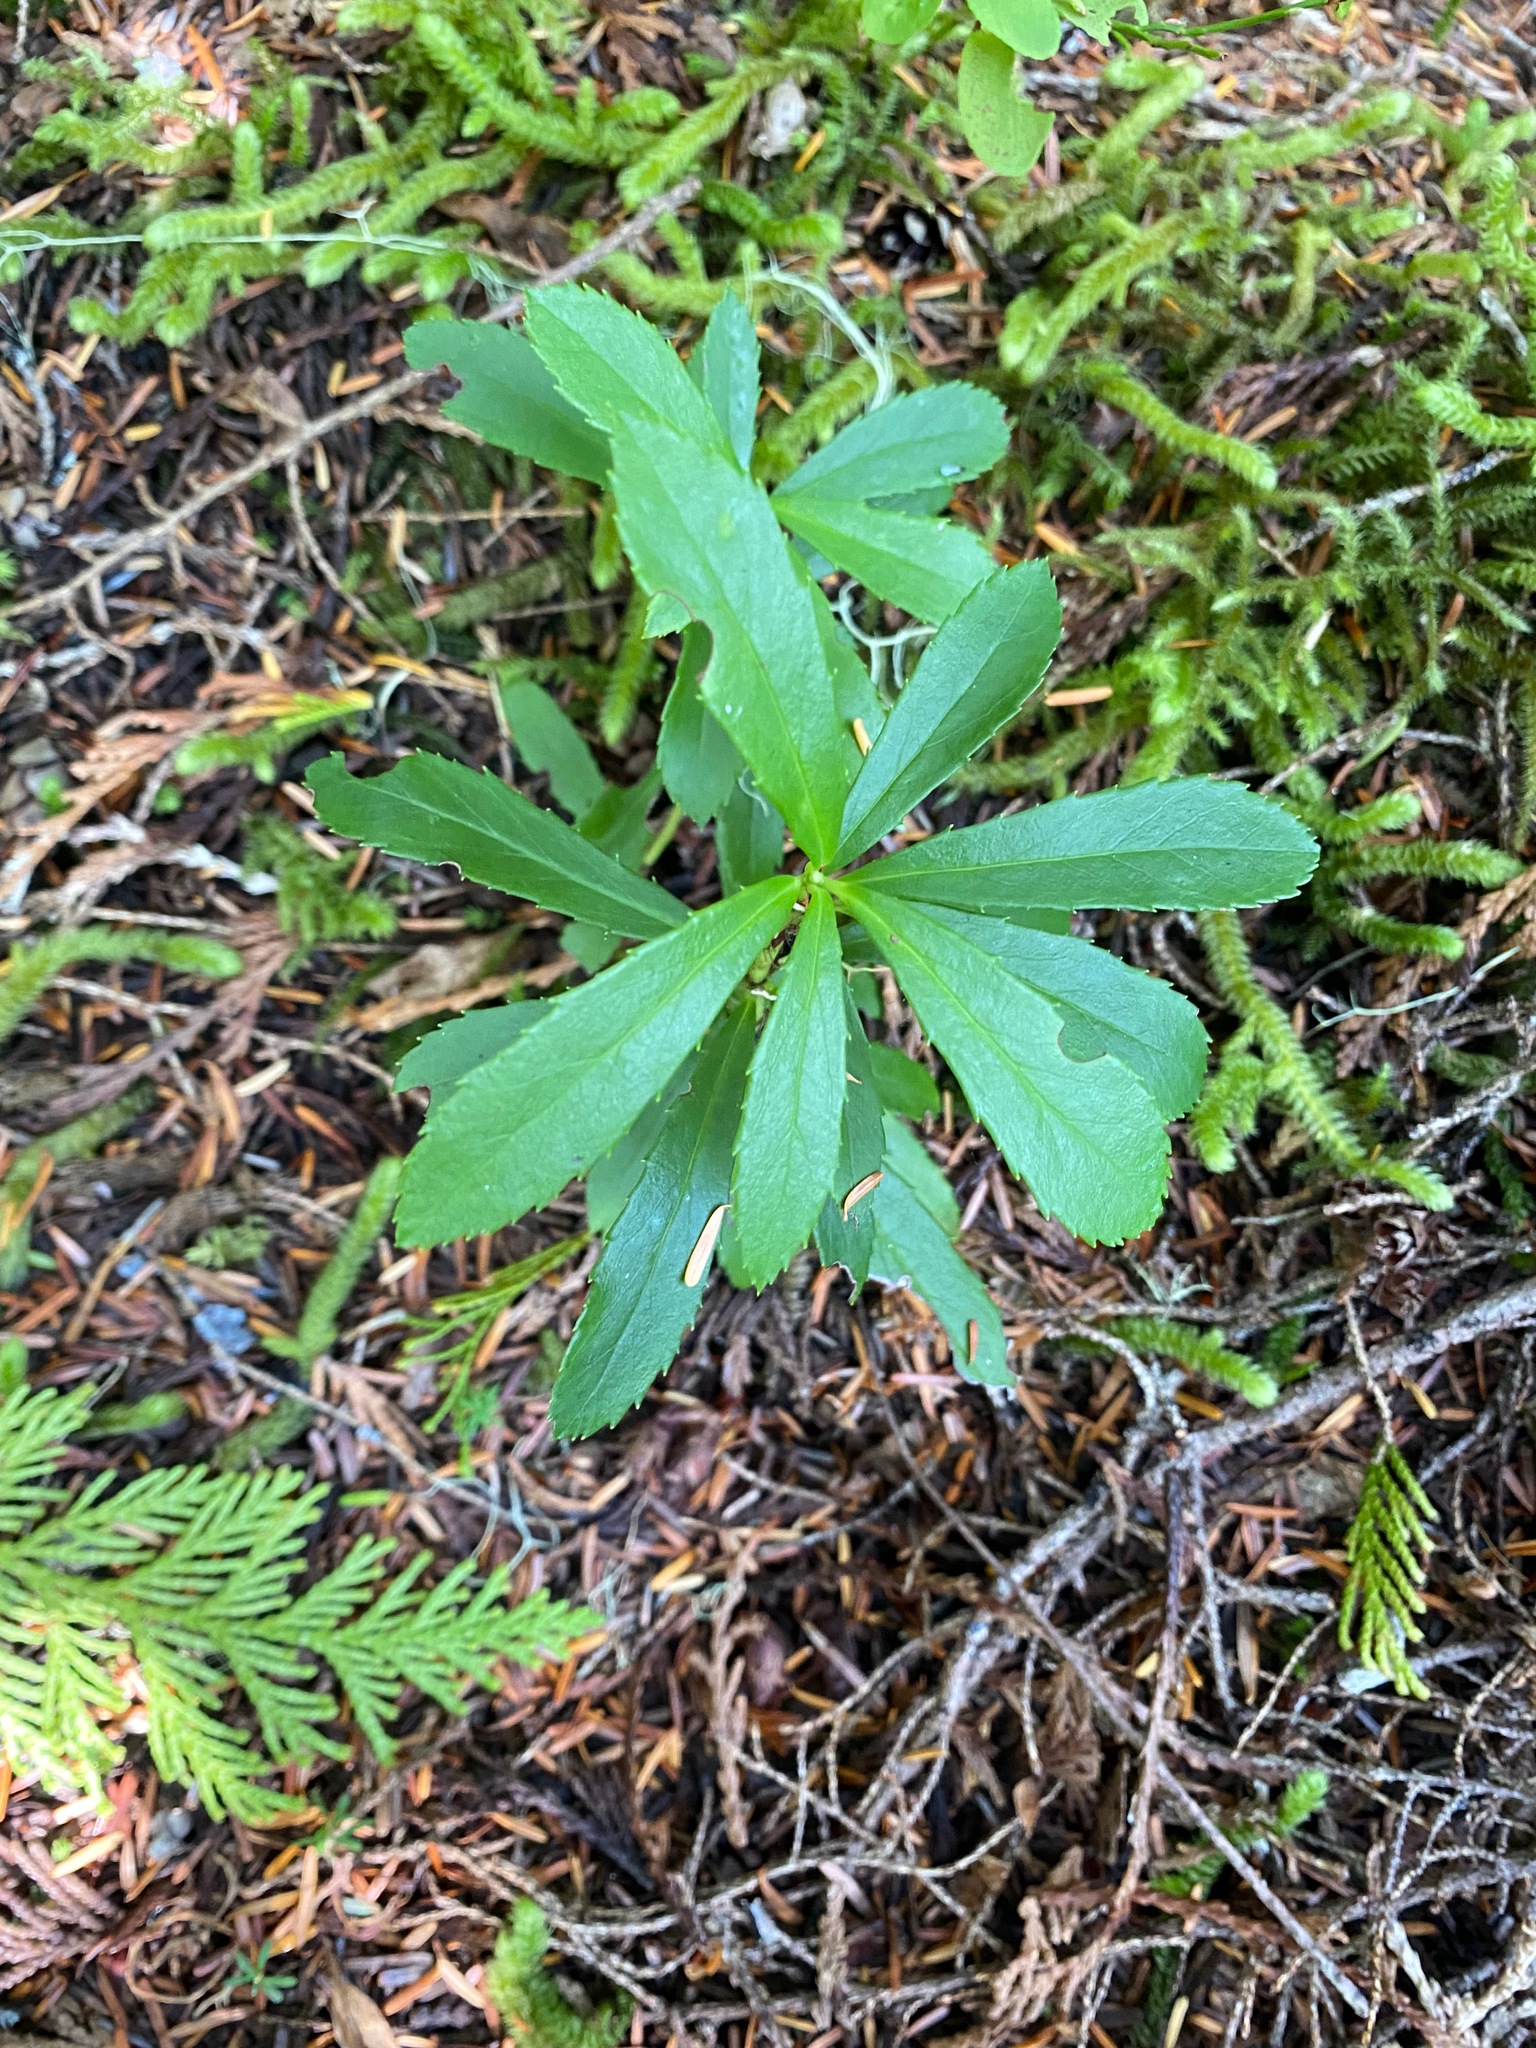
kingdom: Plantae
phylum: Tracheophyta
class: Magnoliopsida
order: Ericales
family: Ericaceae
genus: Chimaphila
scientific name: Chimaphila umbellata
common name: Pipsissewa
